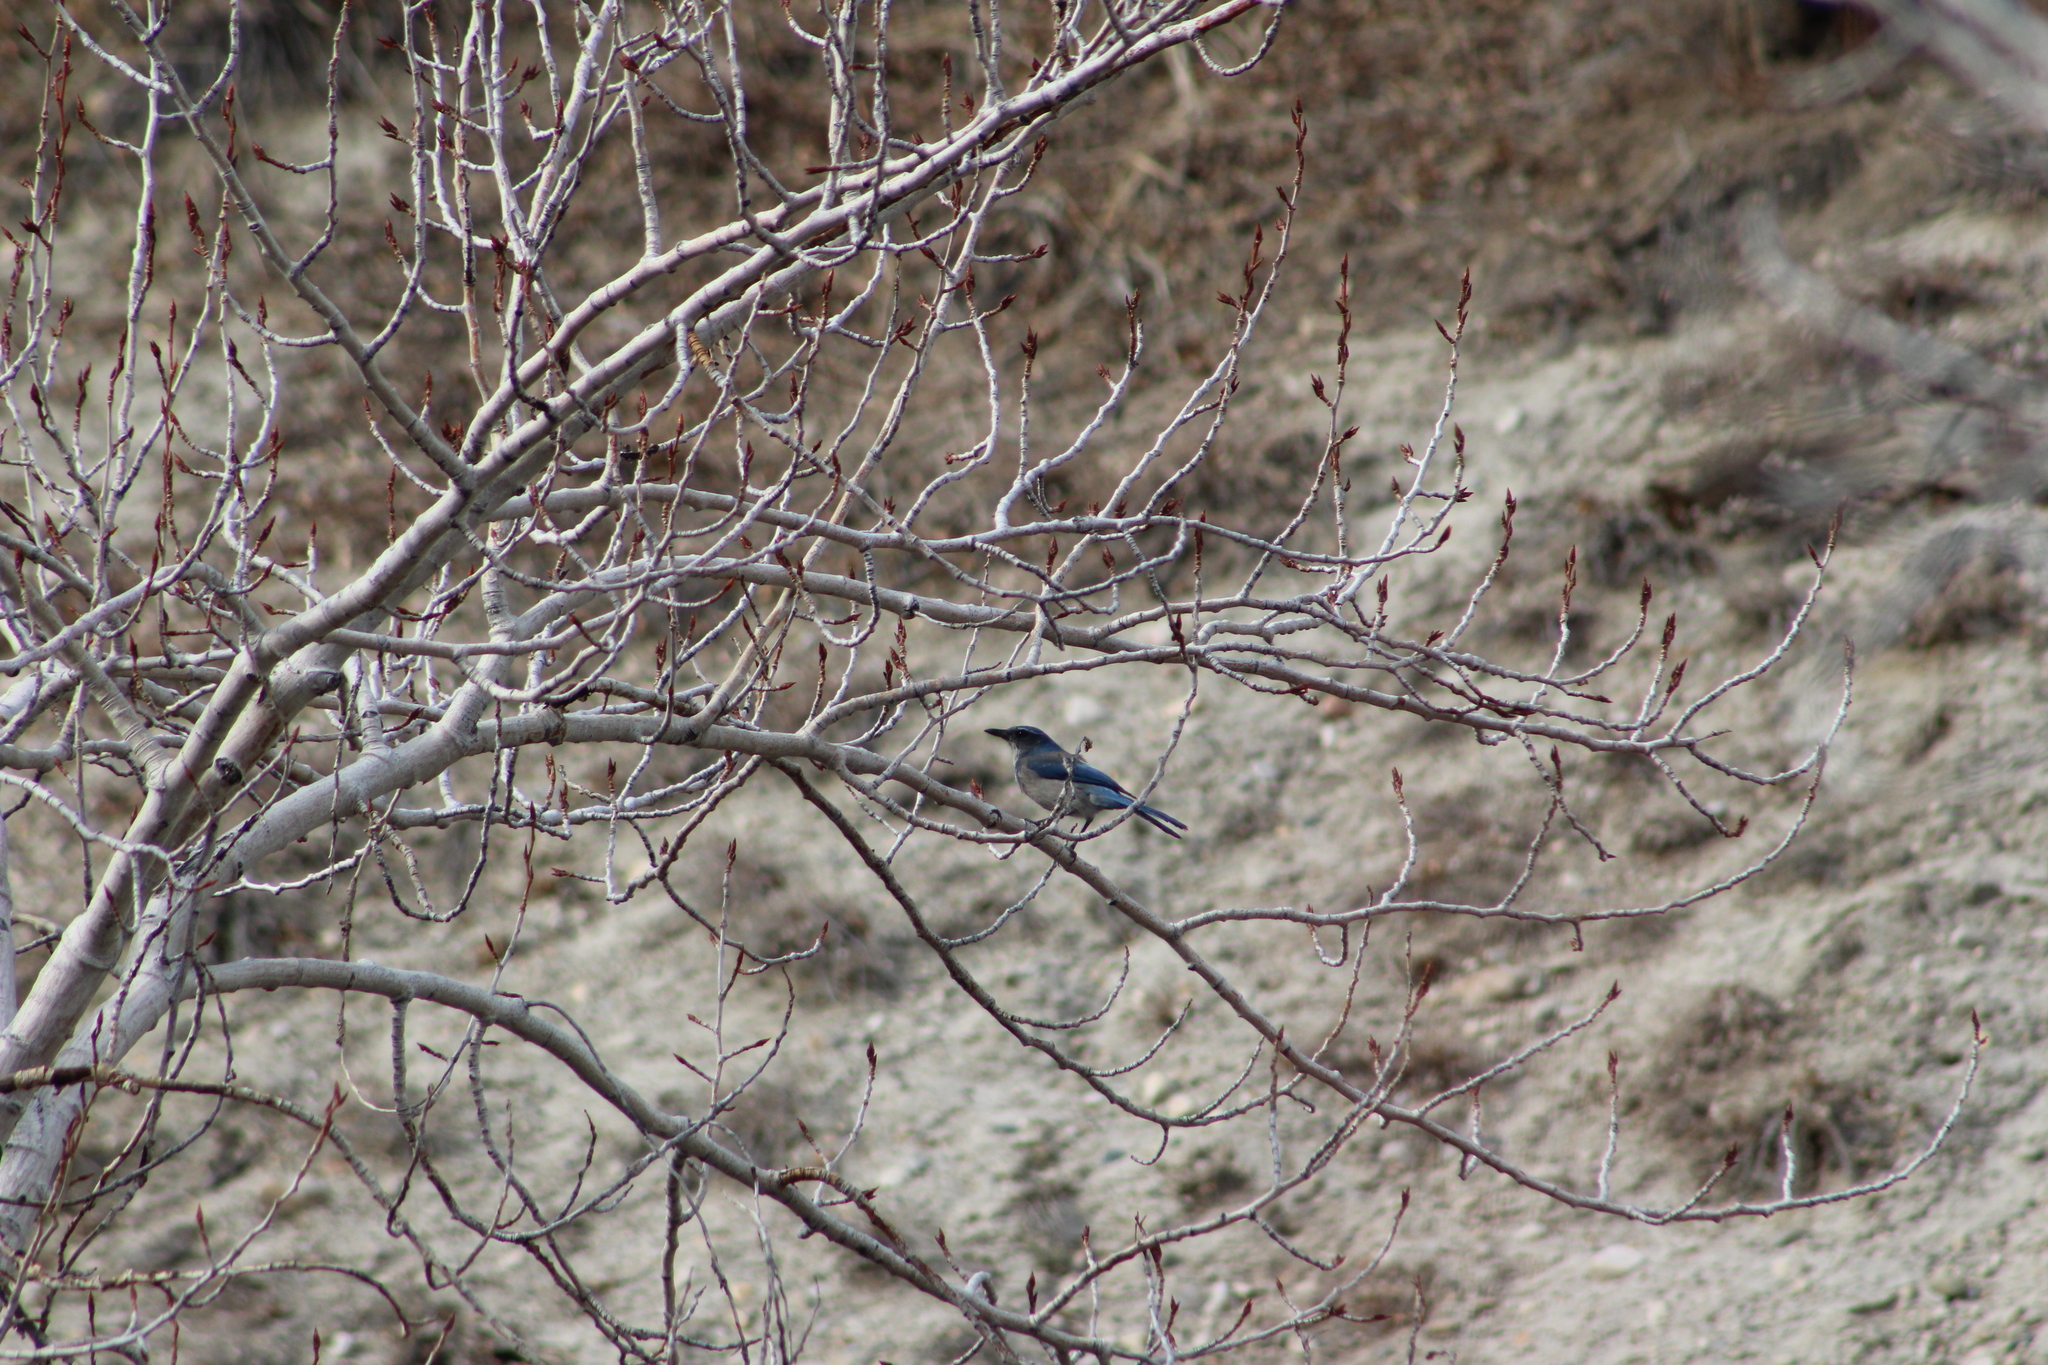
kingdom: Animalia
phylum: Chordata
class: Aves
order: Passeriformes
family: Corvidae
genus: Aphelocoma
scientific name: Aphelocoma woodhouseii
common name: Woodhouse's scrub-jay
